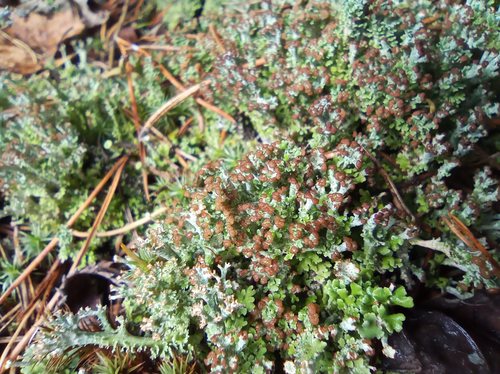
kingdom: Fungi
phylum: Ascomycota
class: Lecanoromycetes
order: Lecanorales
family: Cladoniaceae
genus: Cladonia
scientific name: Cladonia gracilis
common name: Smooth clad lichen
